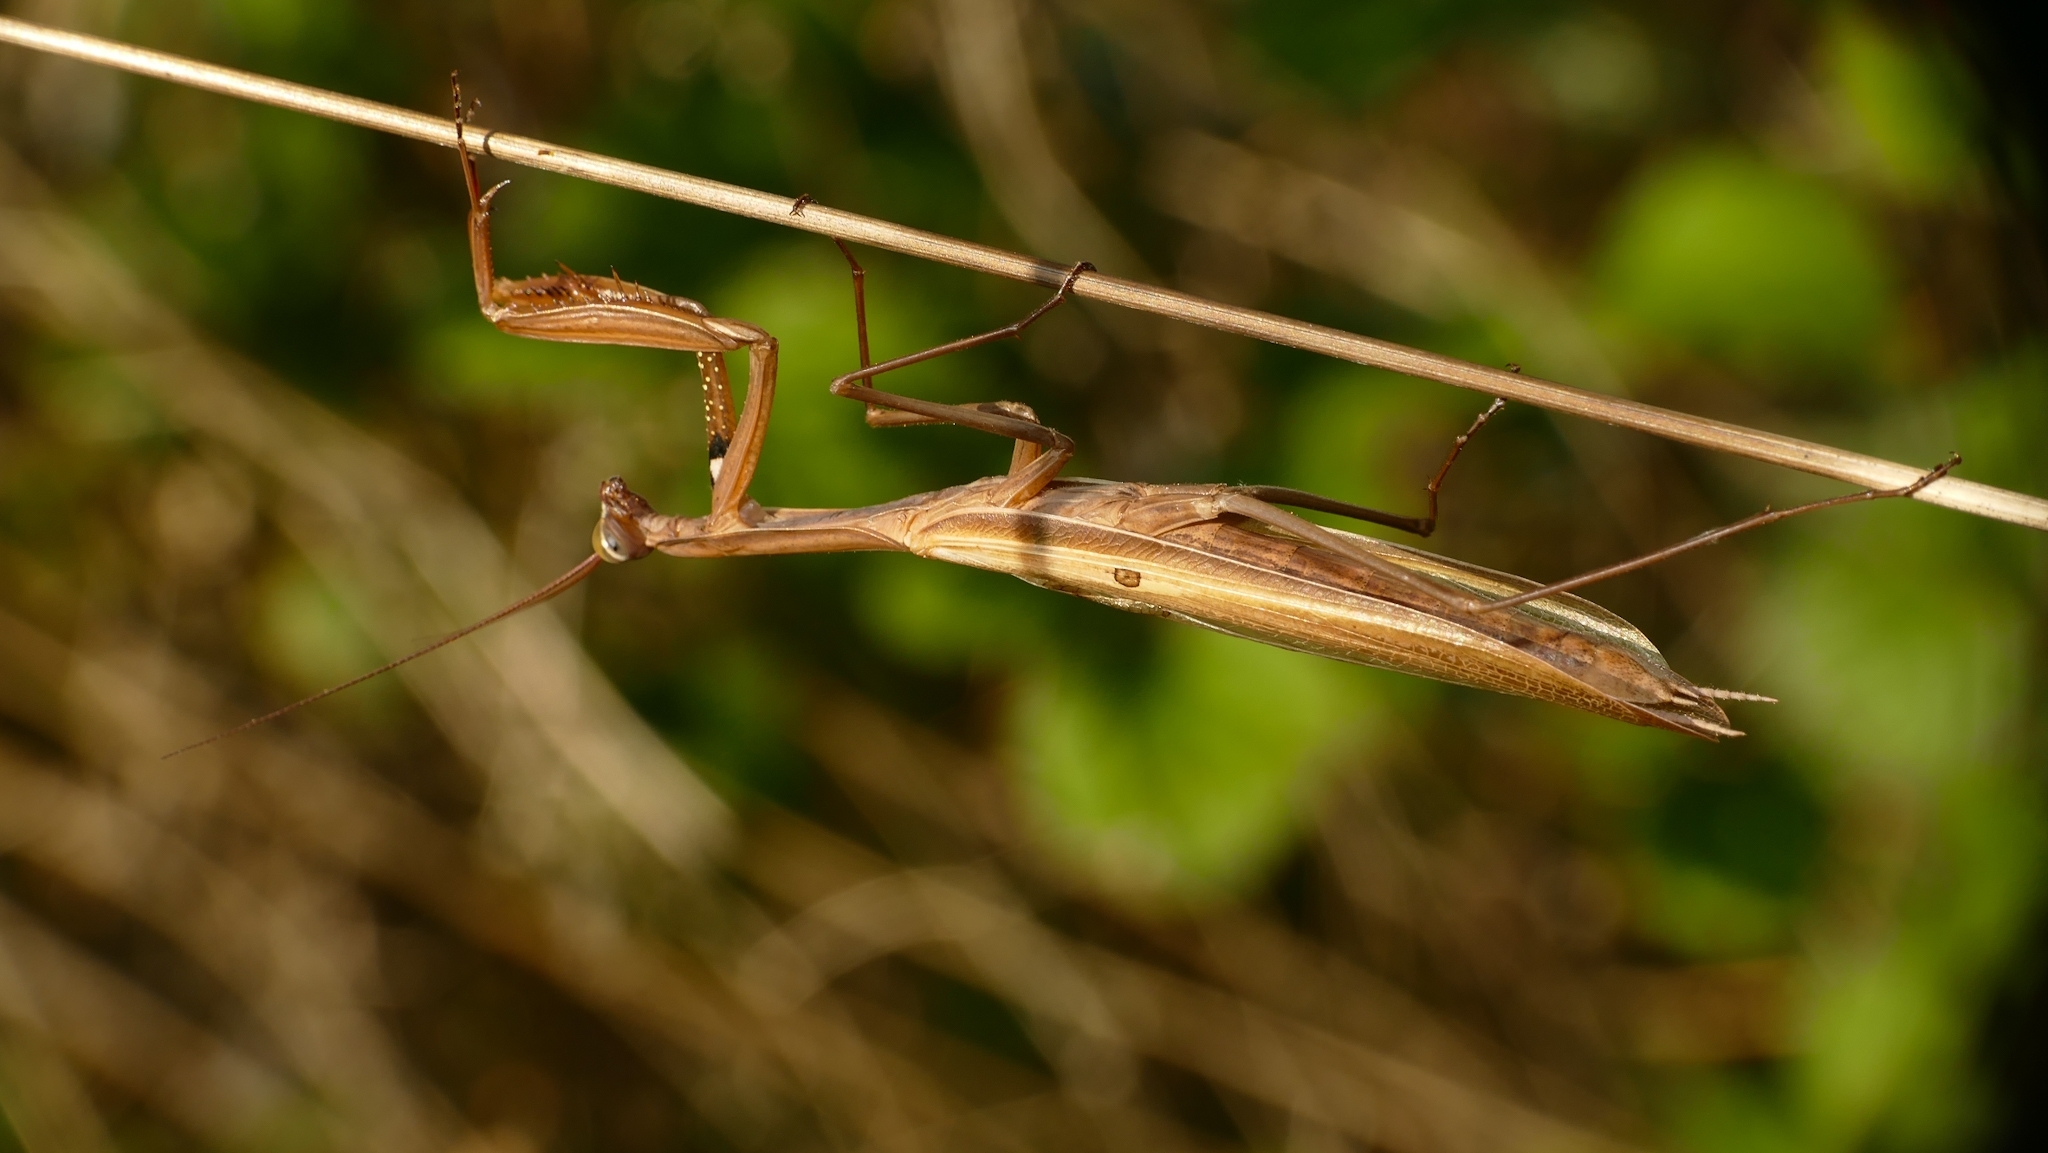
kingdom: Animalia
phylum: Arthropoda
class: Insecta
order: Mantodea
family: Mantidae
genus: Mantis
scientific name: Mantis religiosa
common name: Praying mantis
